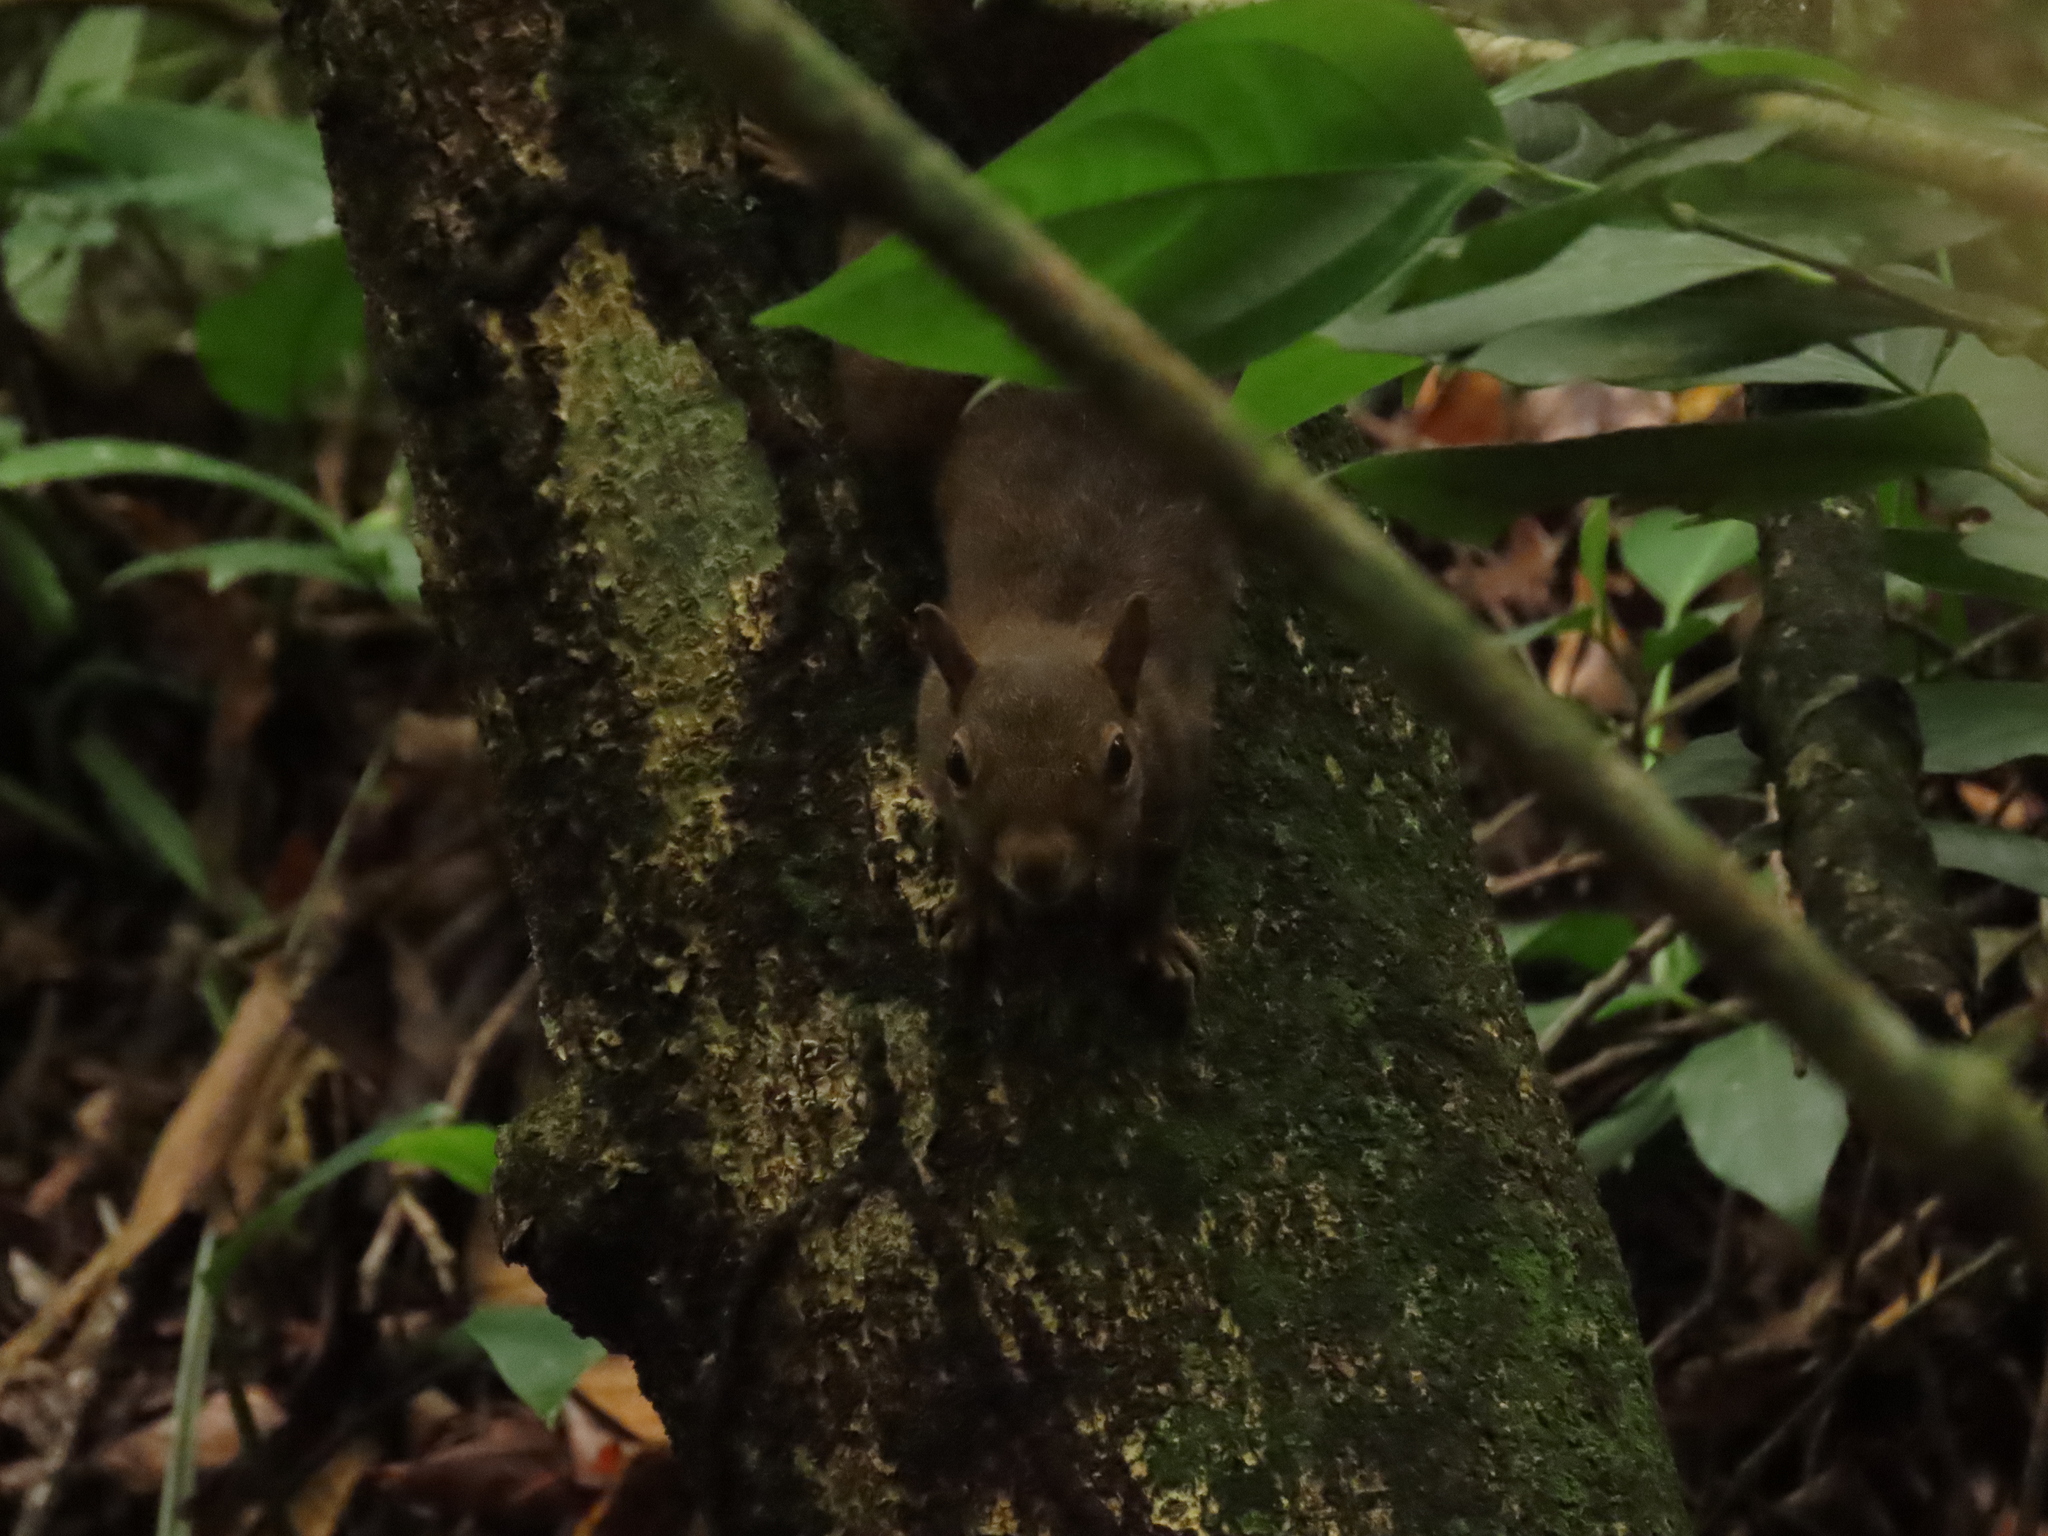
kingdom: Animalia
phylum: Chordata
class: Mammalia
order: Rodentia
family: Sciuridae
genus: Sciurus
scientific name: Sciurus aestuans
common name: Guianan squirrel
